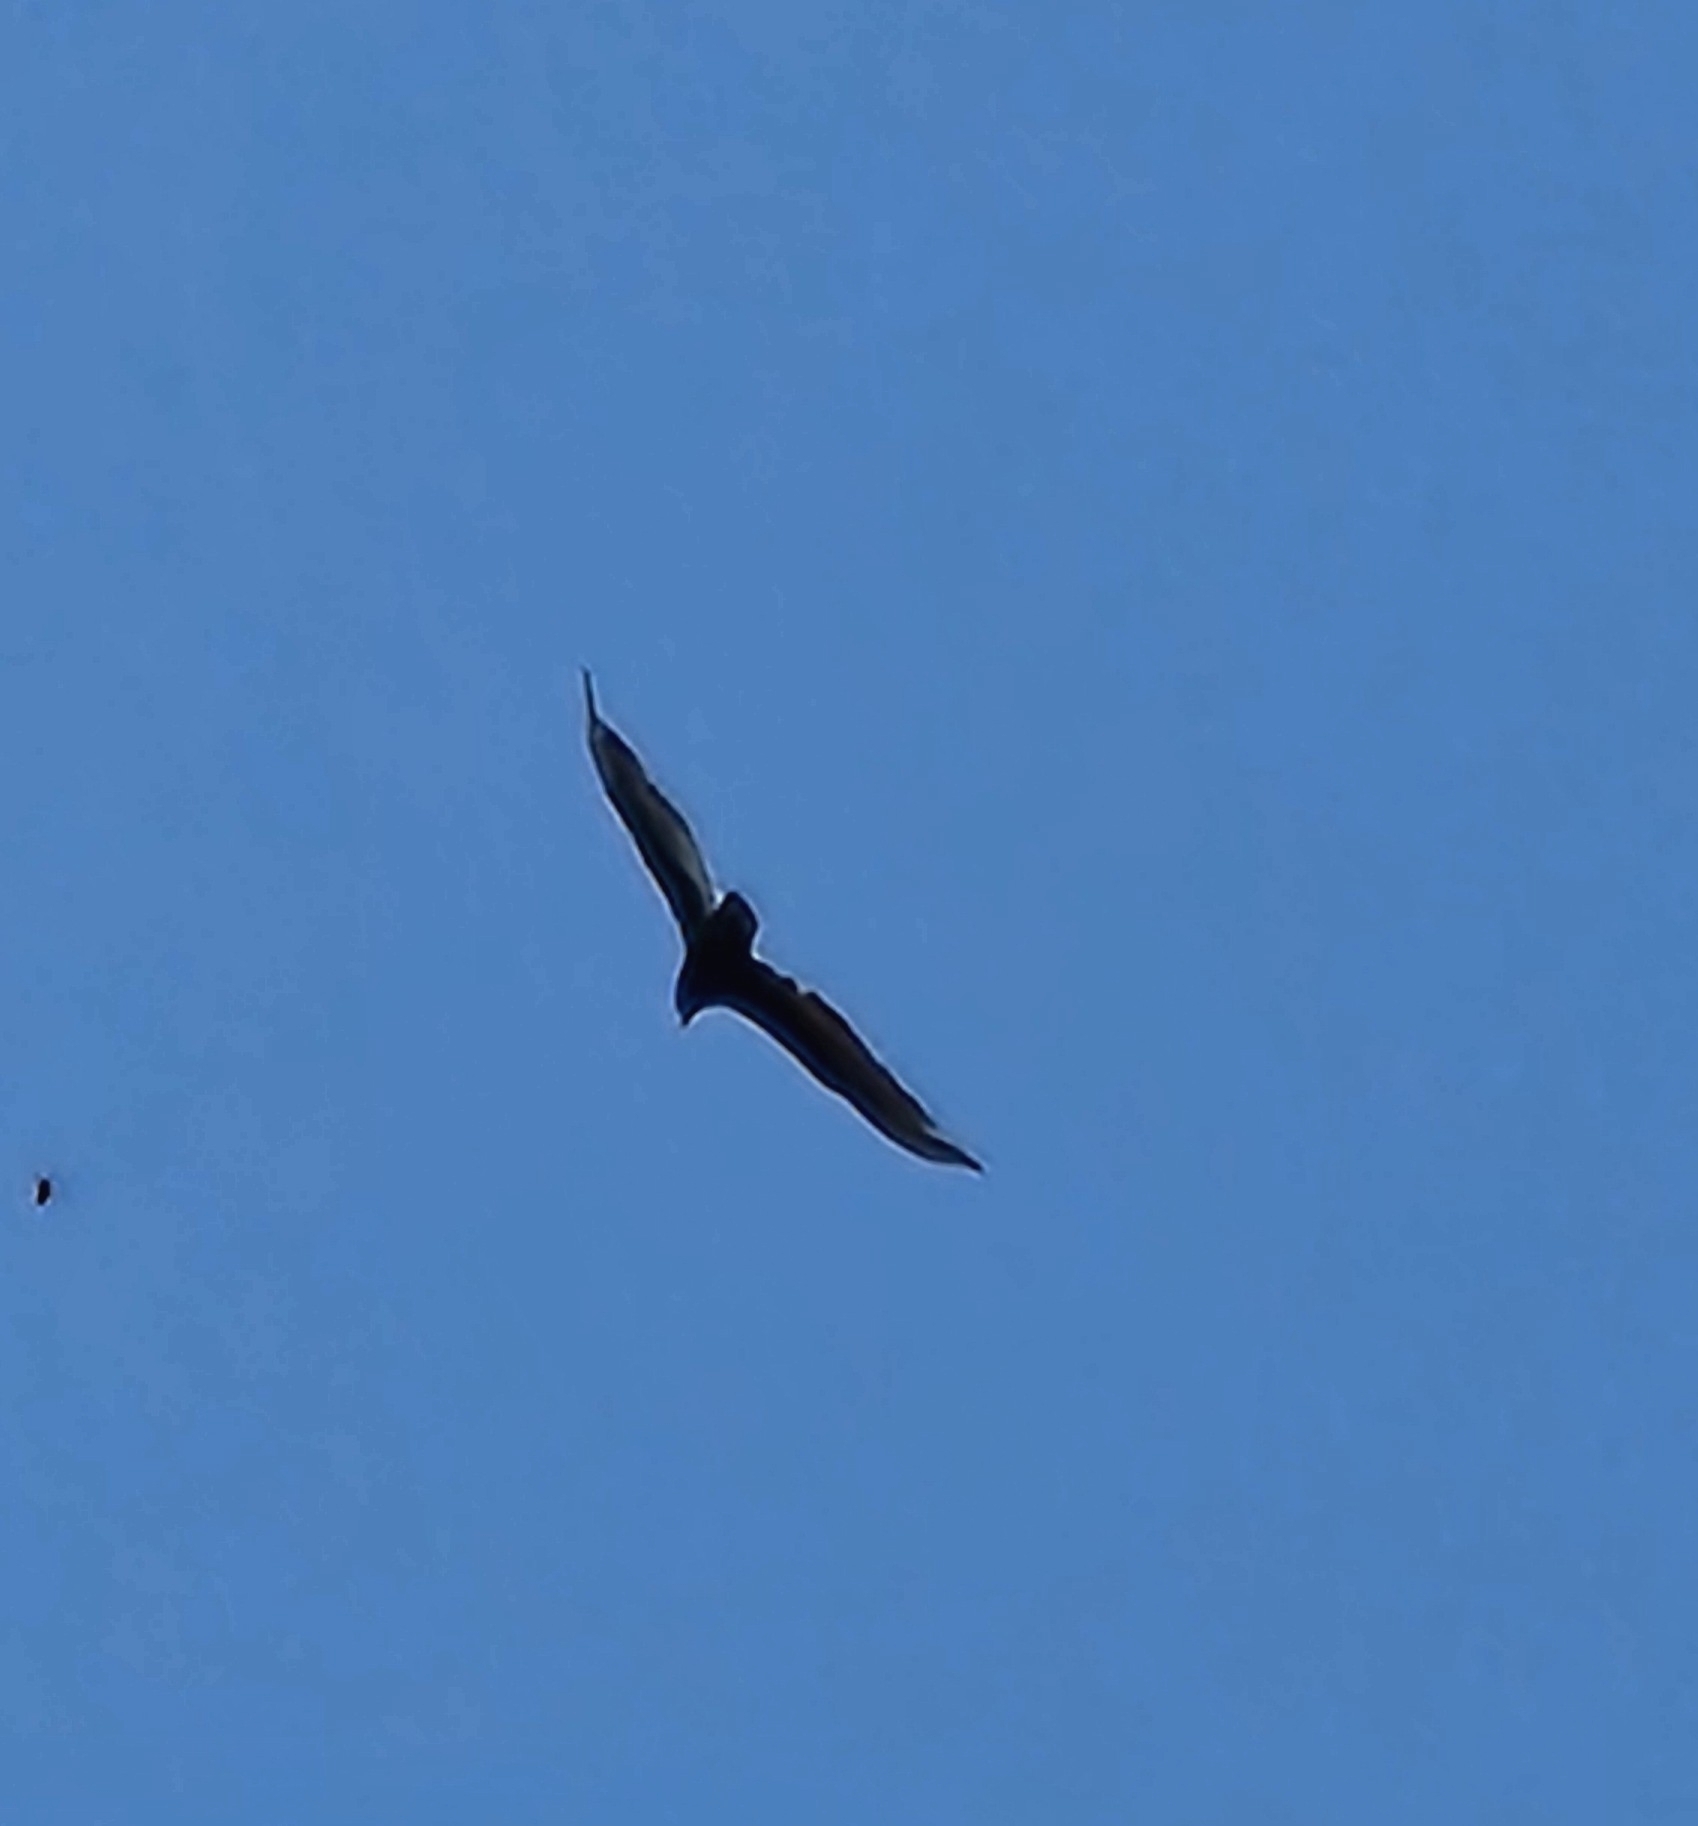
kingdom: Animalia
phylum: Chordata
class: Aves
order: Accipitriformes
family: Cathartidae
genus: Cathartes
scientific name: Cathartes aura
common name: Turkey vulture
